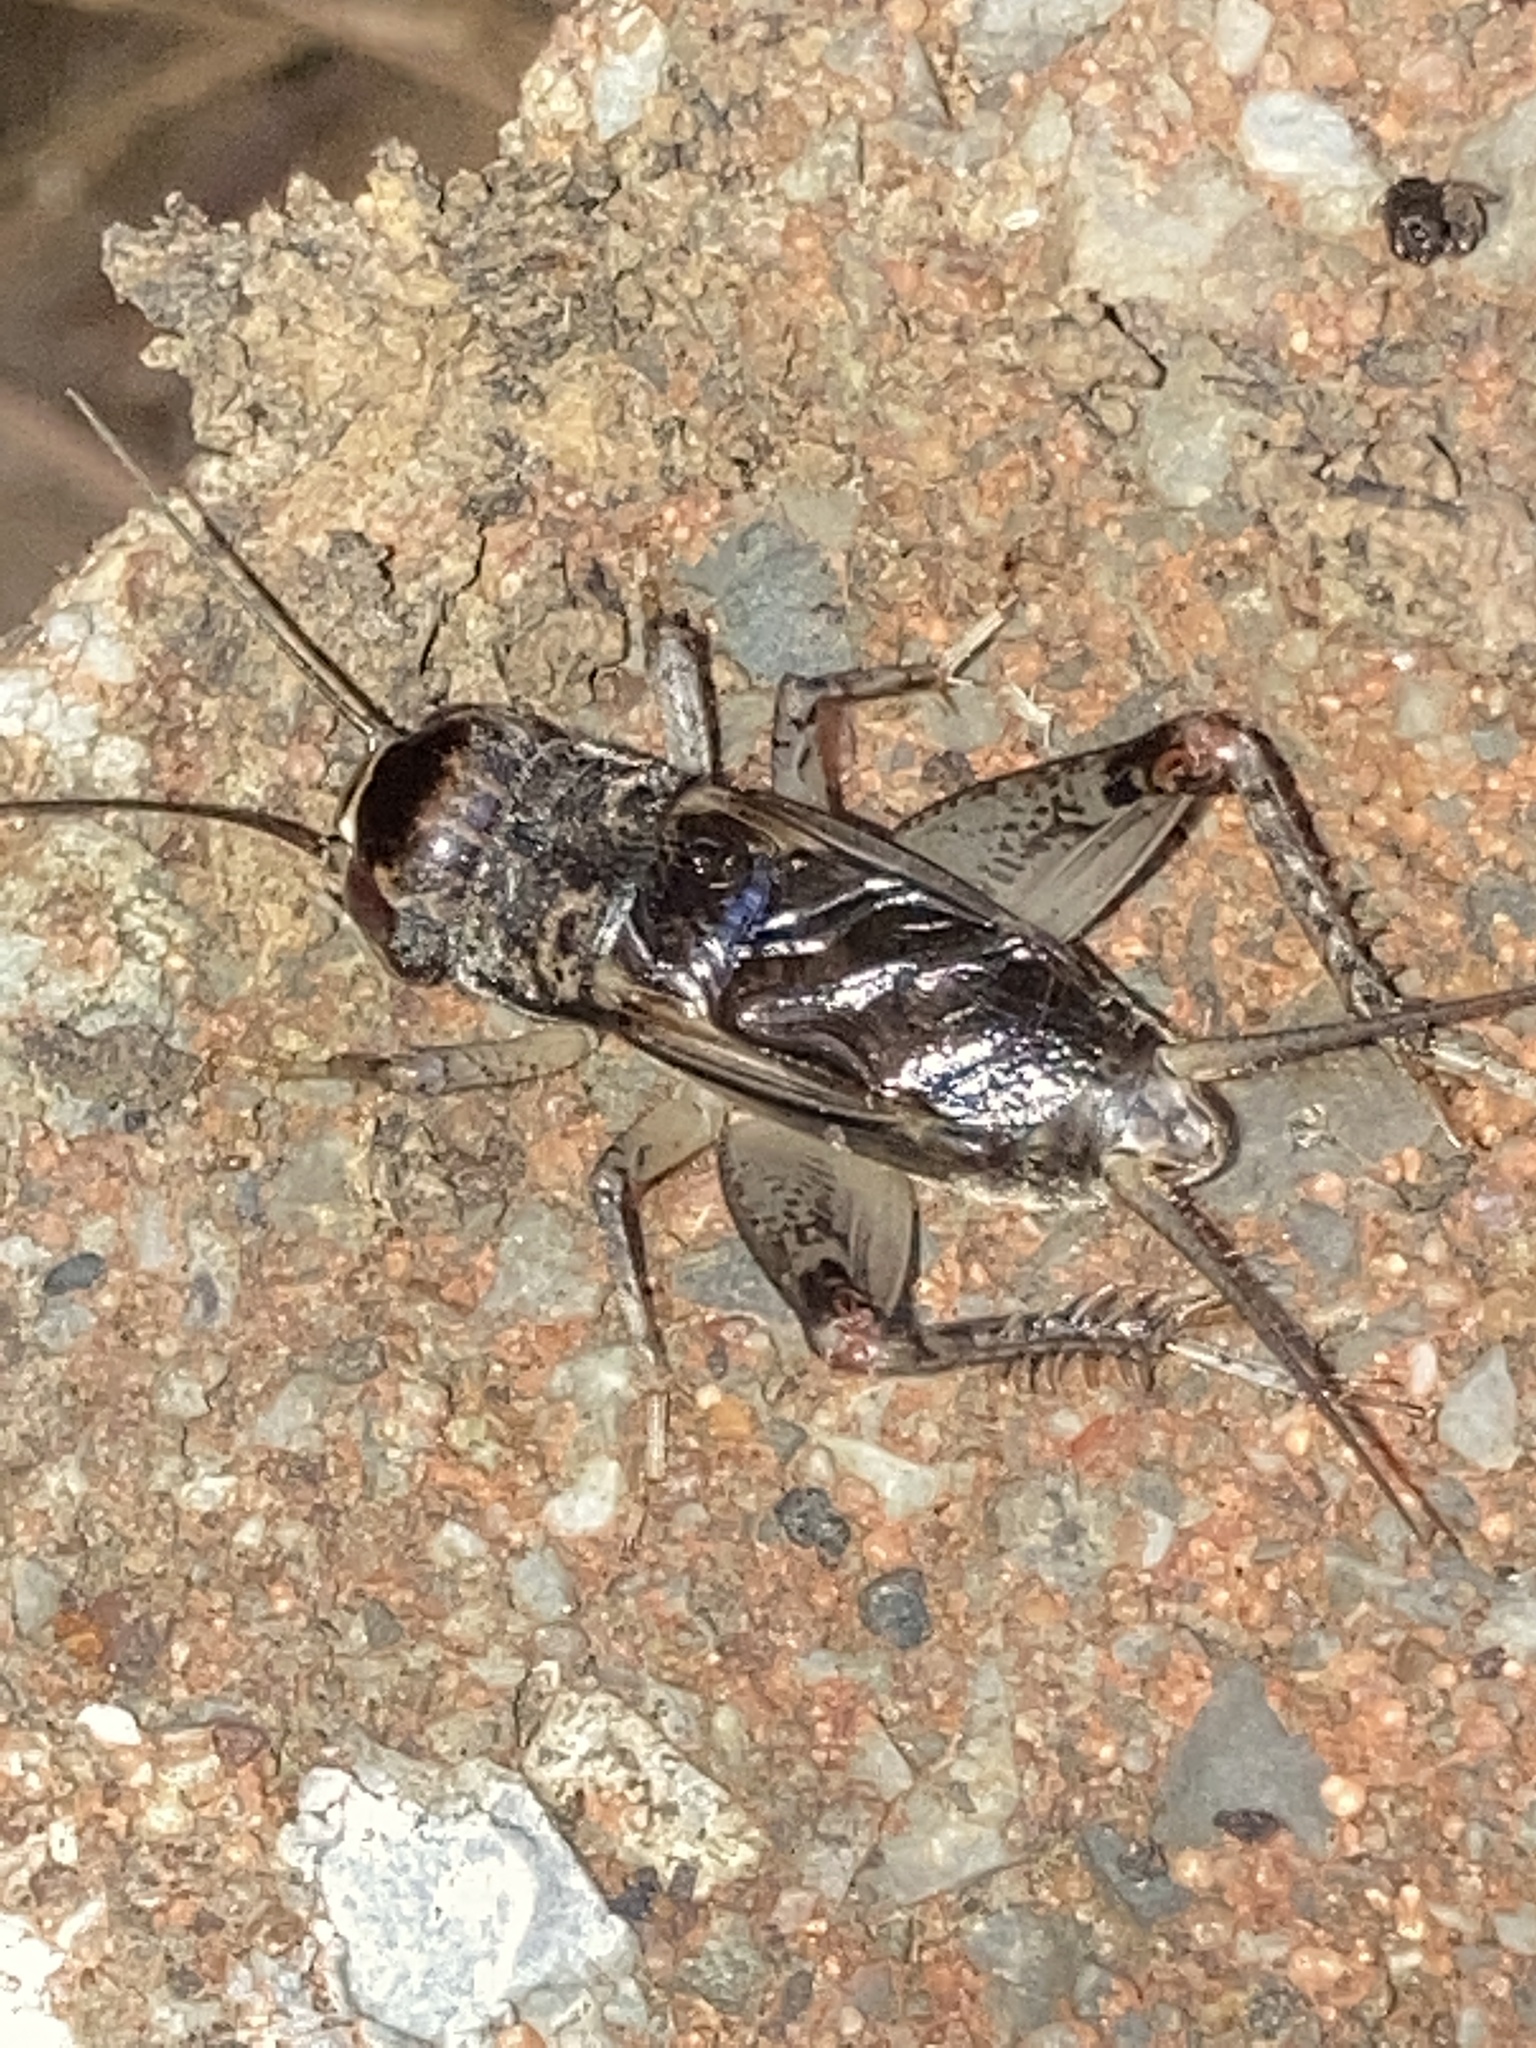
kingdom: Animalia
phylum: Arthropoda
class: Insecta
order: Orthoptera
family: Gryllidae
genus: Velarifictorus
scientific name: Velarifictorus micado
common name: Japanese burrowing cricket
